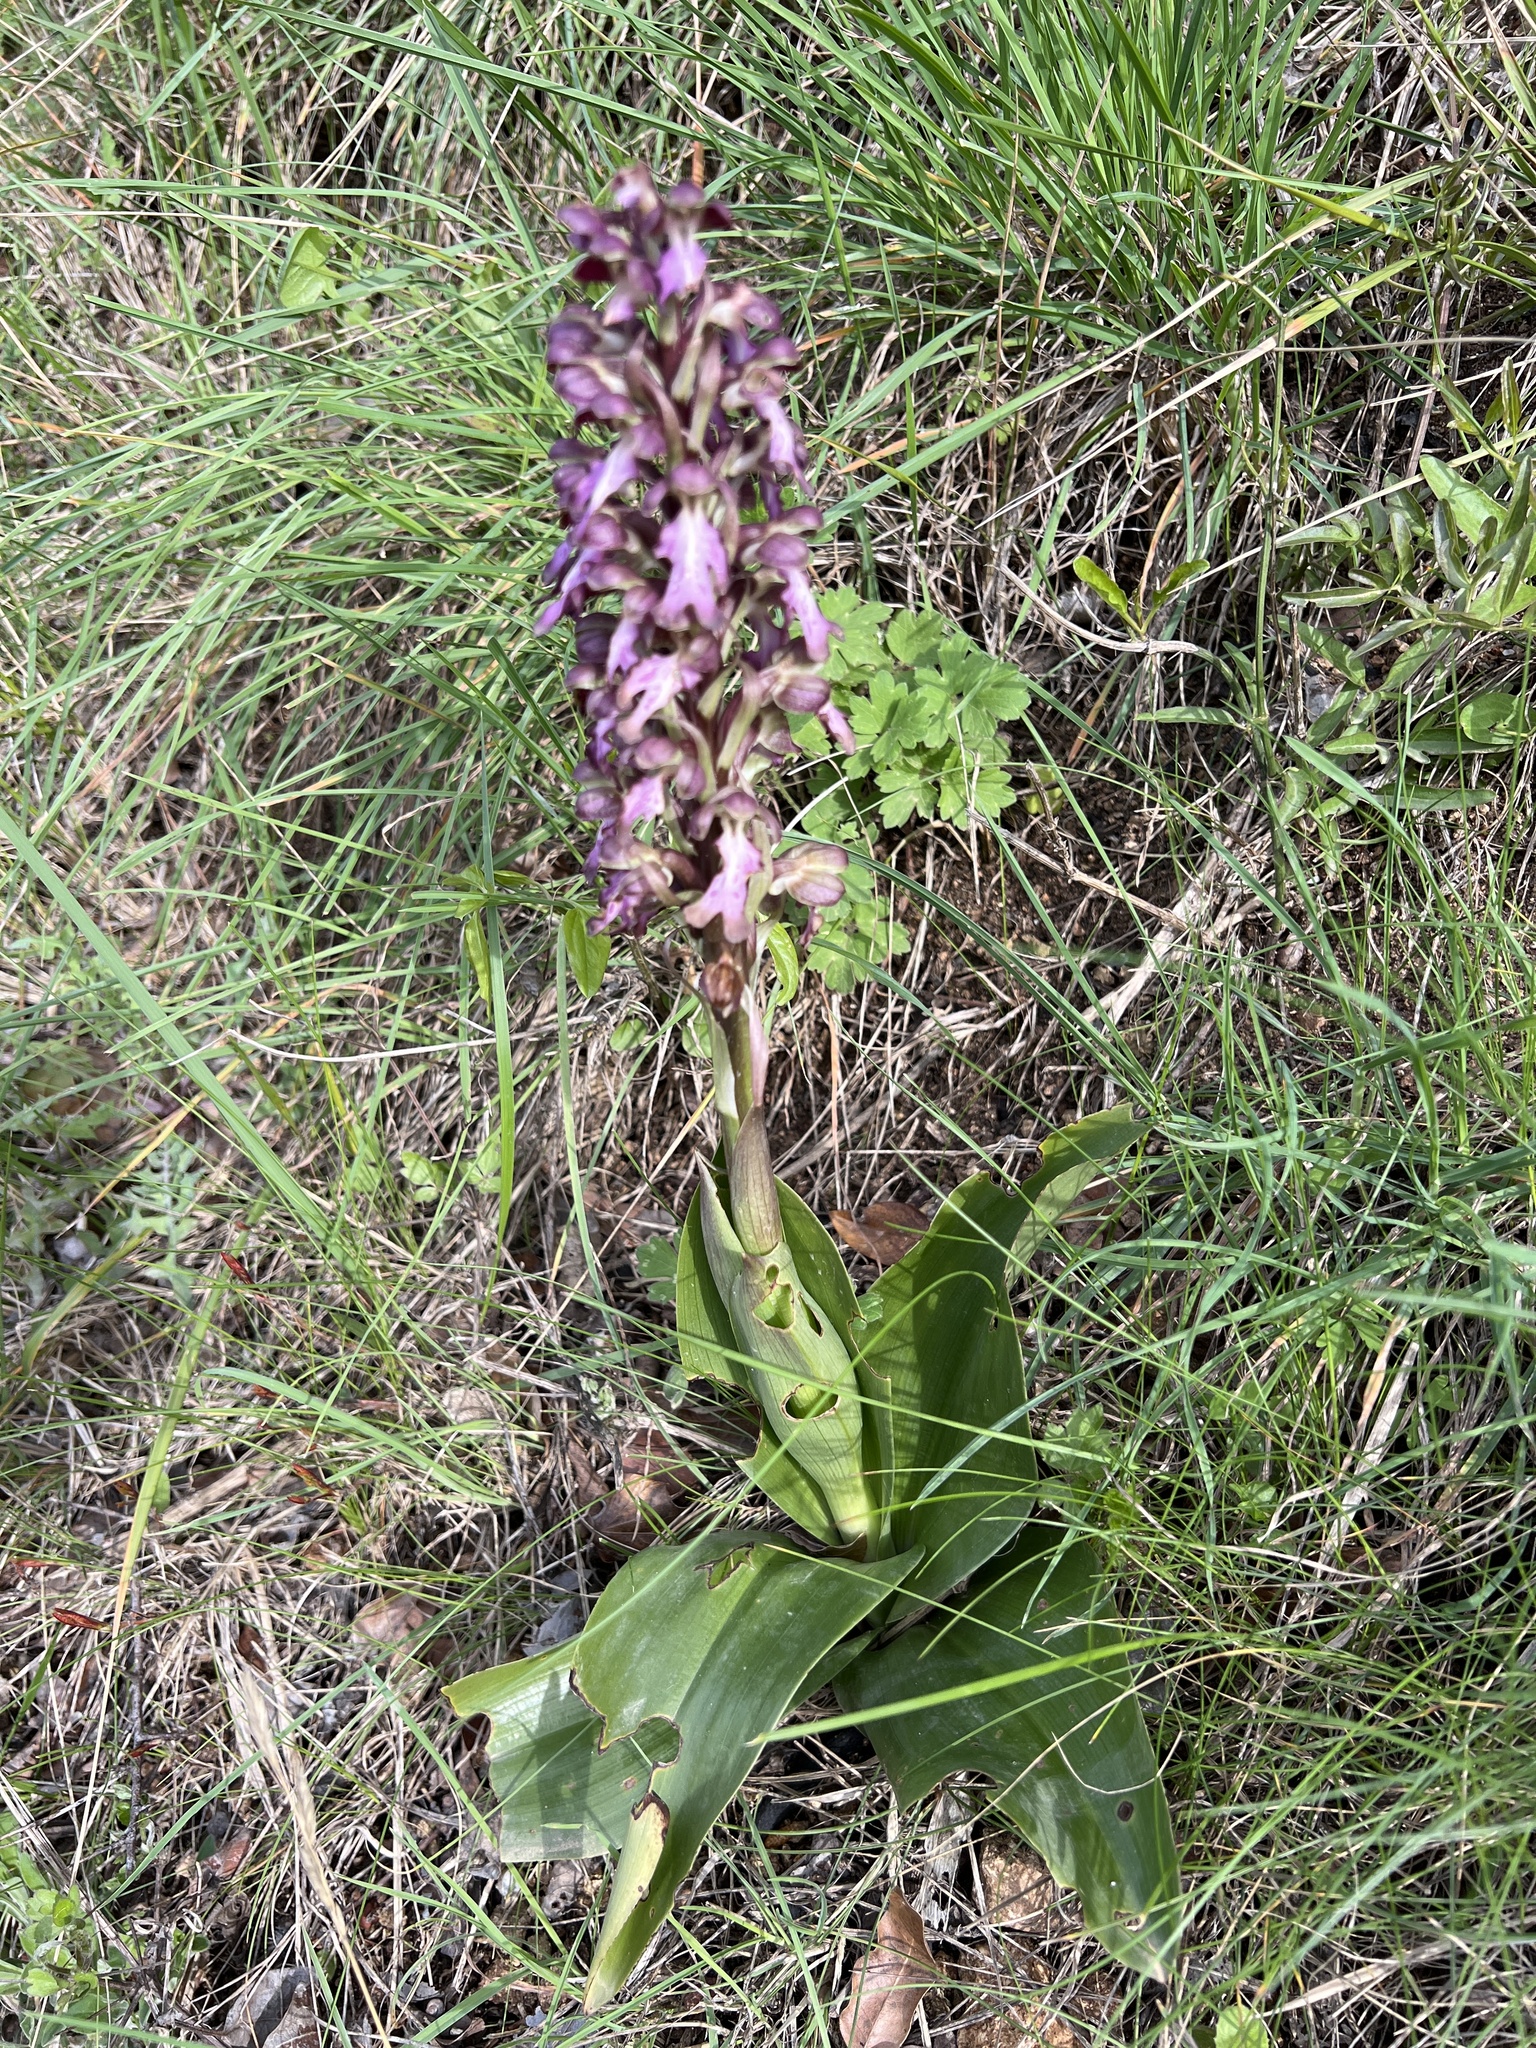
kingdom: Plantae
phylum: Tracheophyta
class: Liliopsida
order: Asparagales
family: Orchidaceae
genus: Himantoglossum
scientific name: Himantoglossum robertianum
